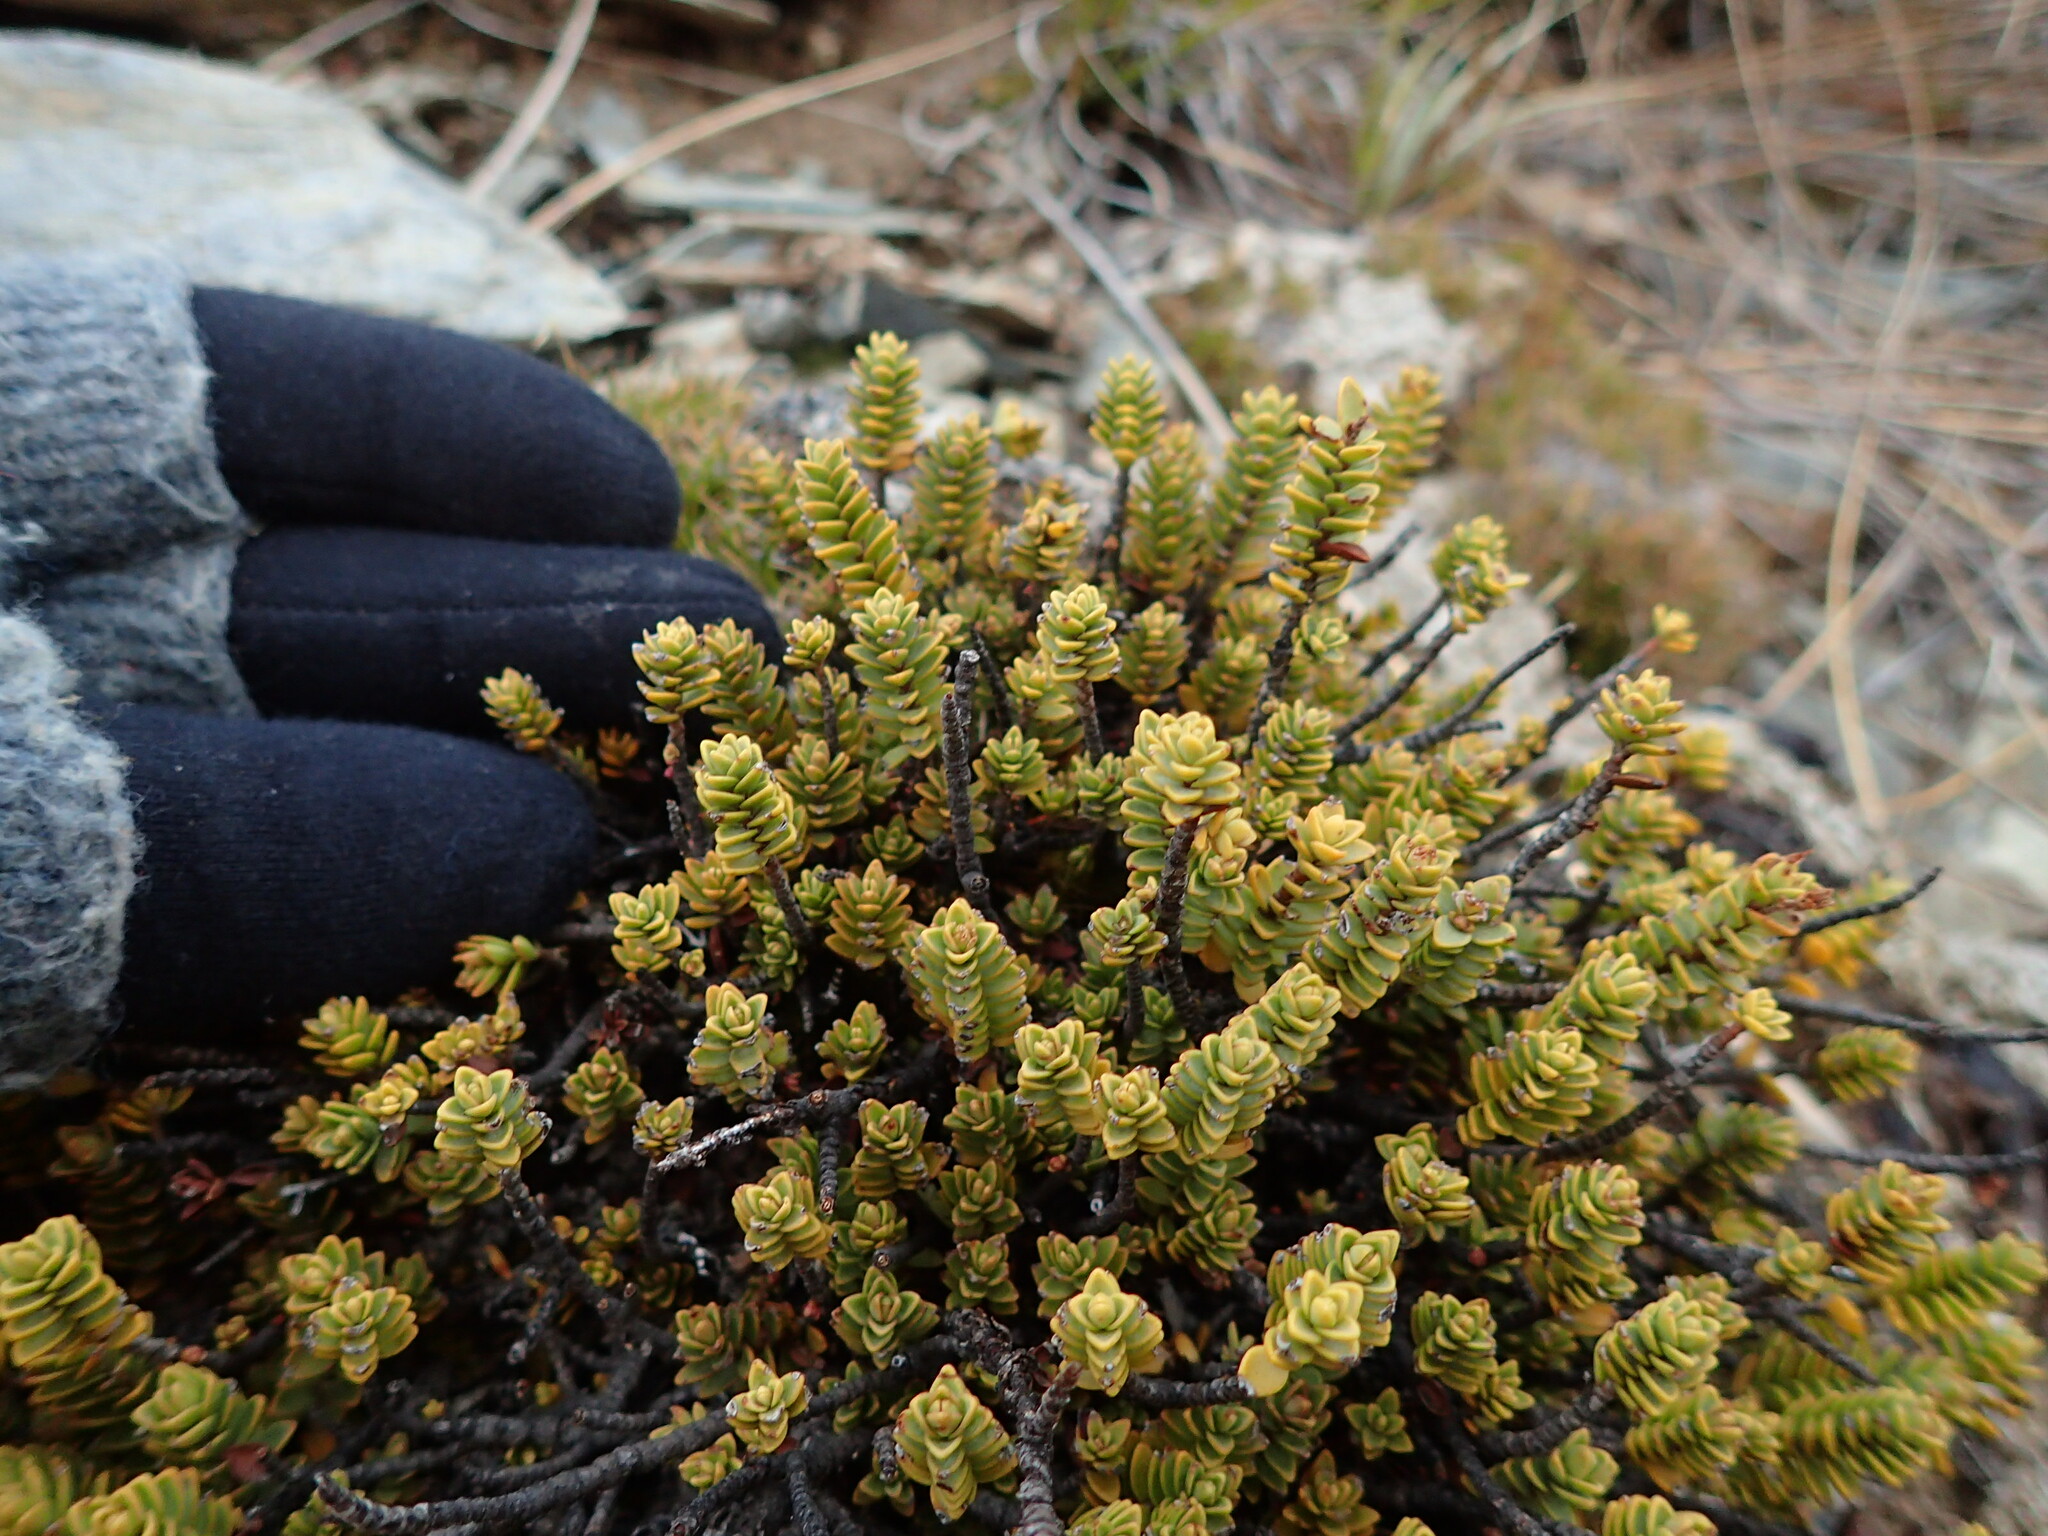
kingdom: Plantae
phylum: Tracheophyta
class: Magnoliopsida
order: Lamiales
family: Plantaginaceae
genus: Veronica
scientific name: Veronica buchananii
